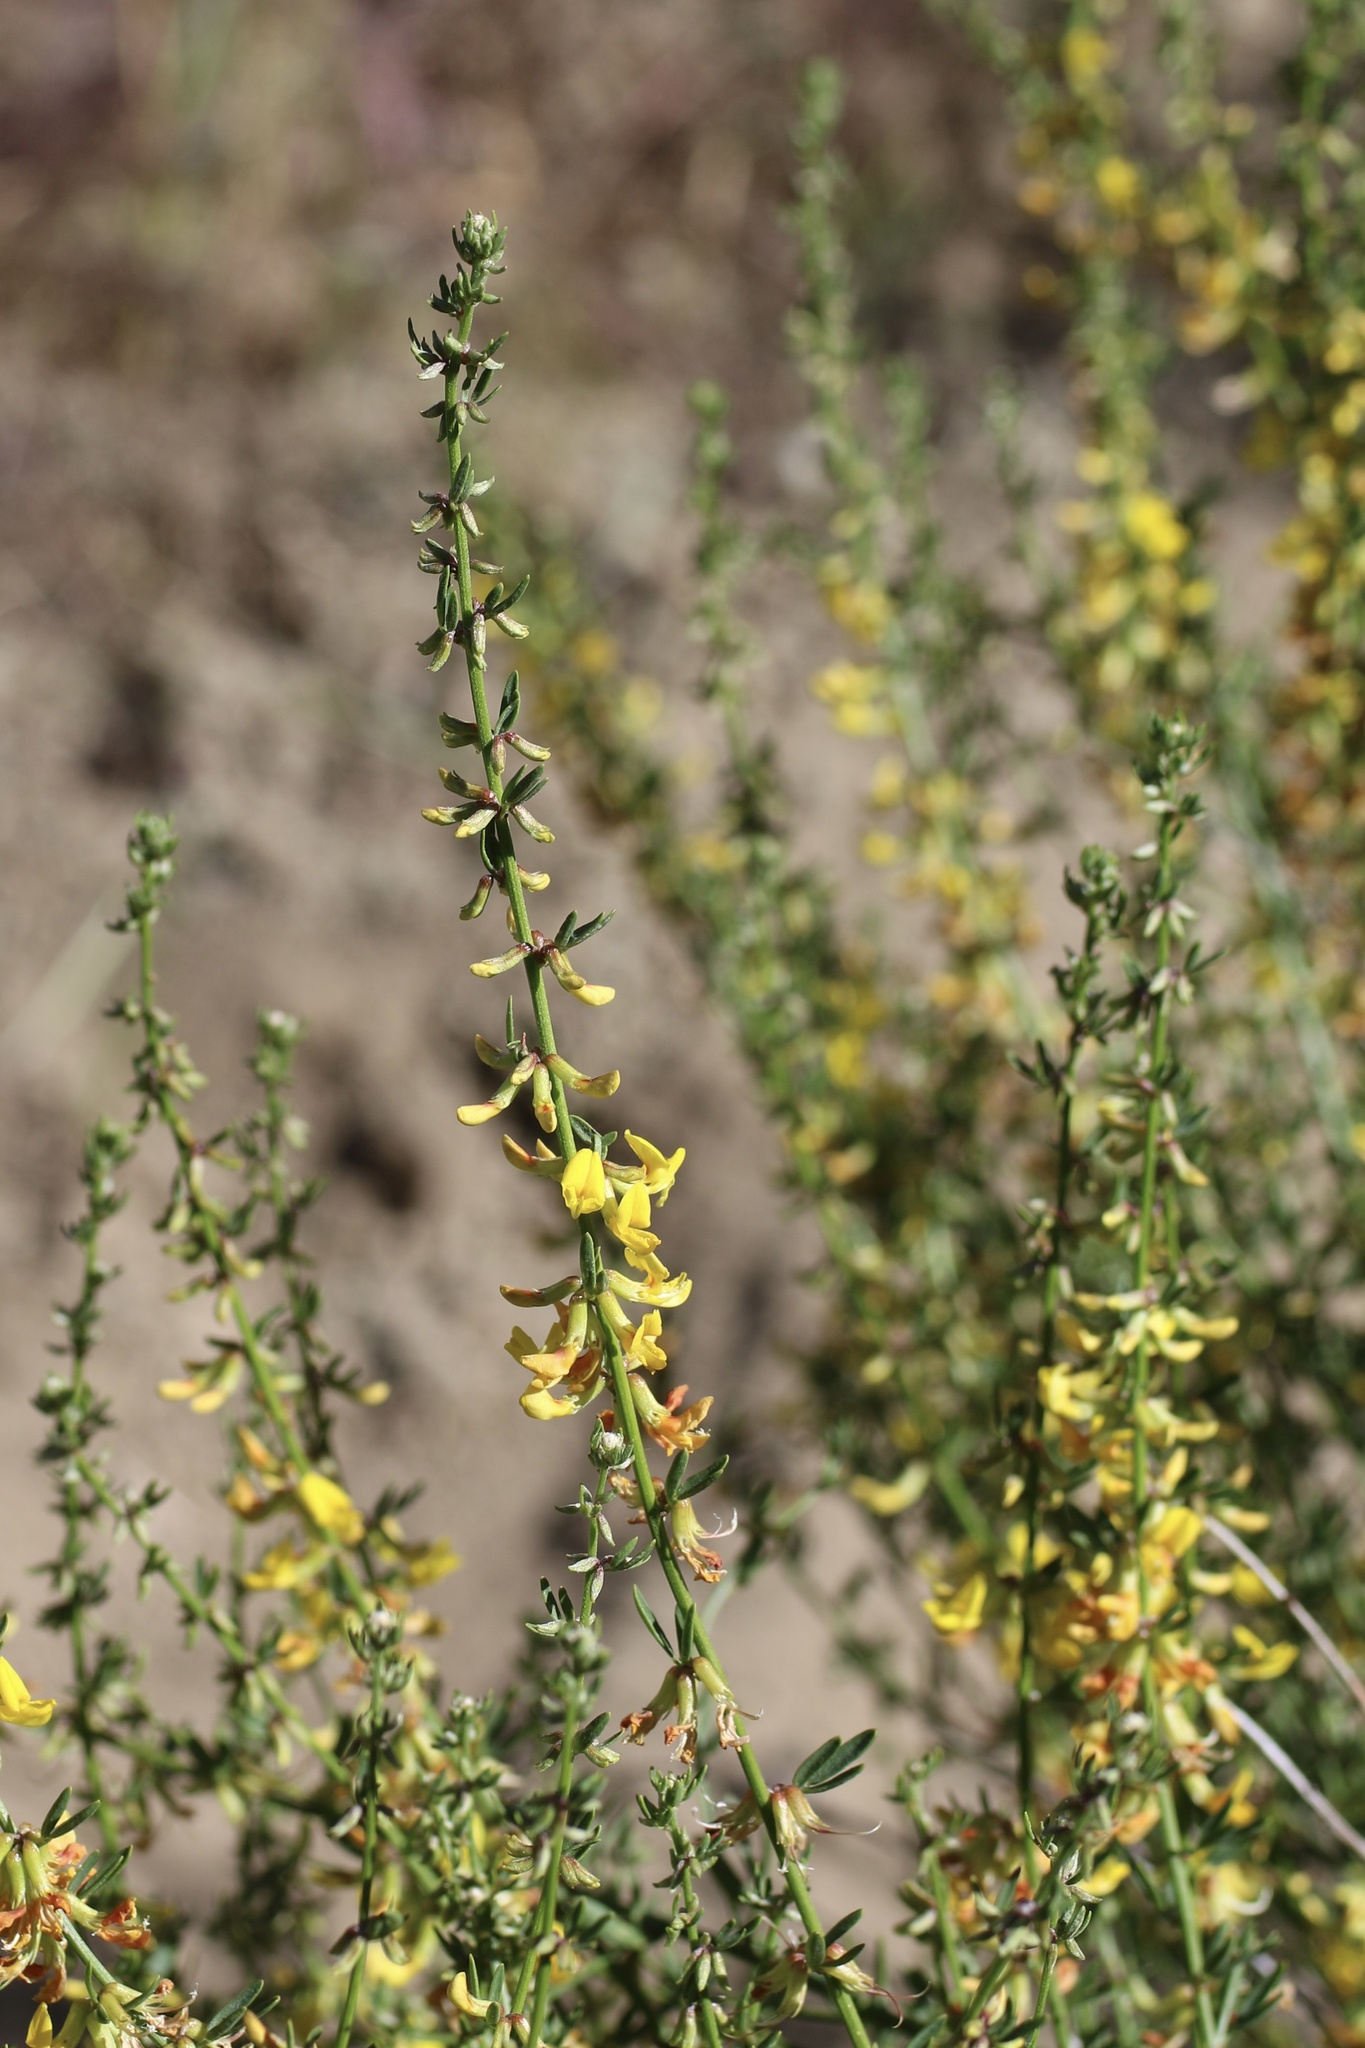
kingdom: Plantae
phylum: Tracheophyta
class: Magnoliopsida
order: Fabales
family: Fabaceae
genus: Acmispon
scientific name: Acmispon glaber
